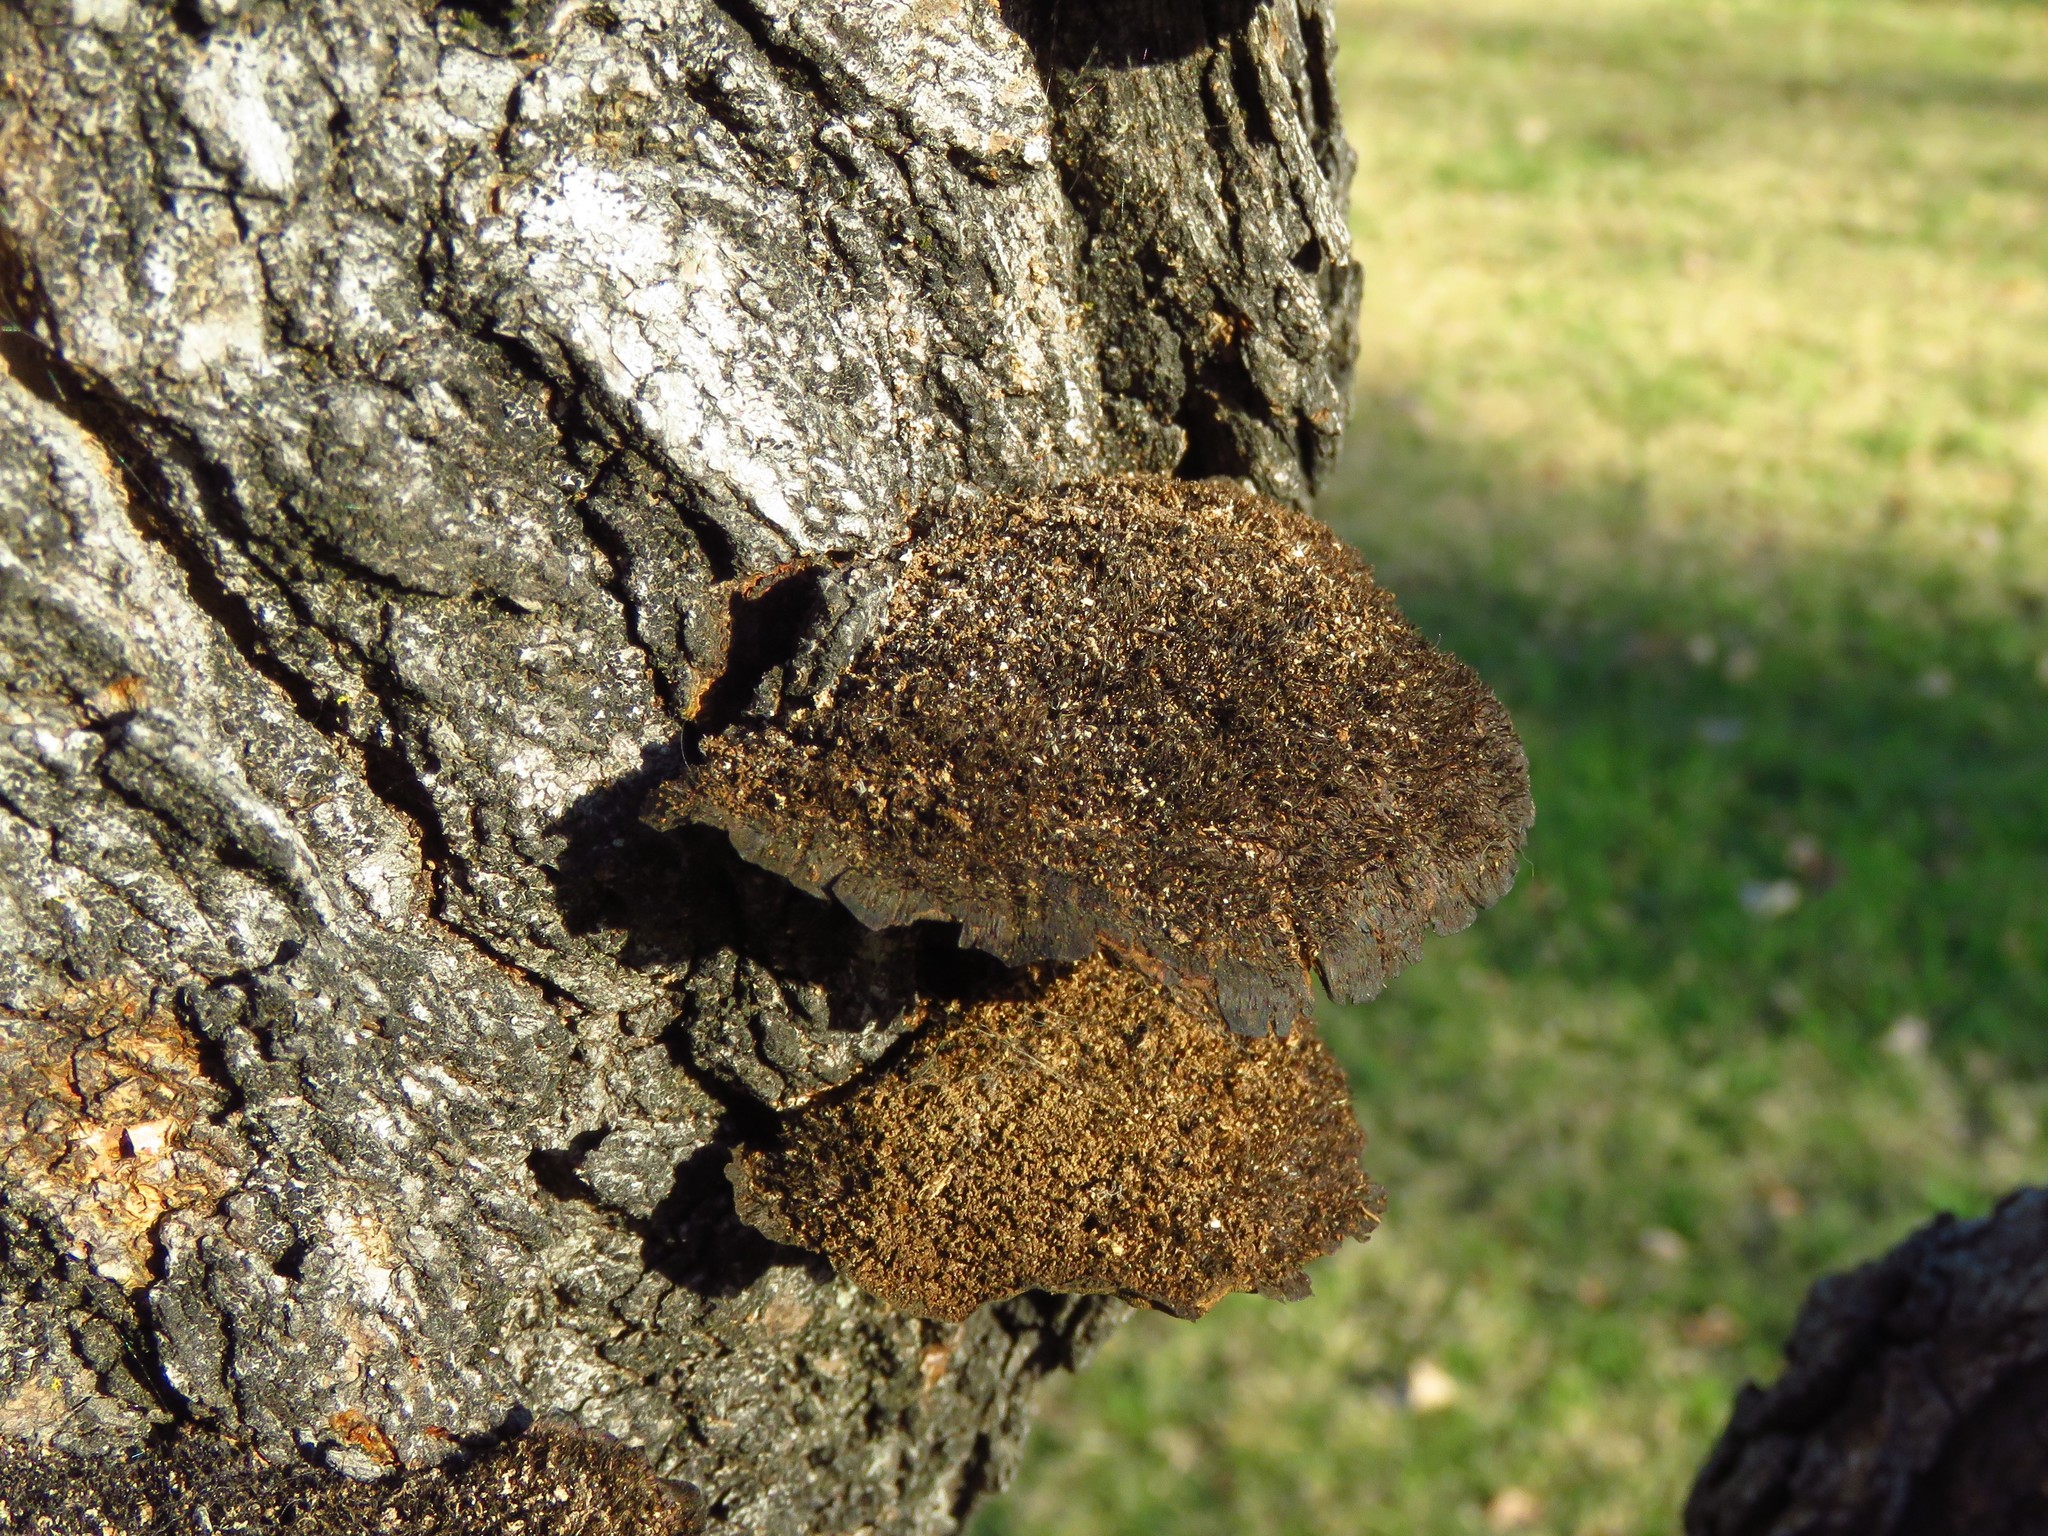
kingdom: Fungi
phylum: Basidiomycota
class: Agaricomycetes
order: Polyporales
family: Cerrenaceae
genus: Cerrena
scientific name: Cerrena hydnoides
